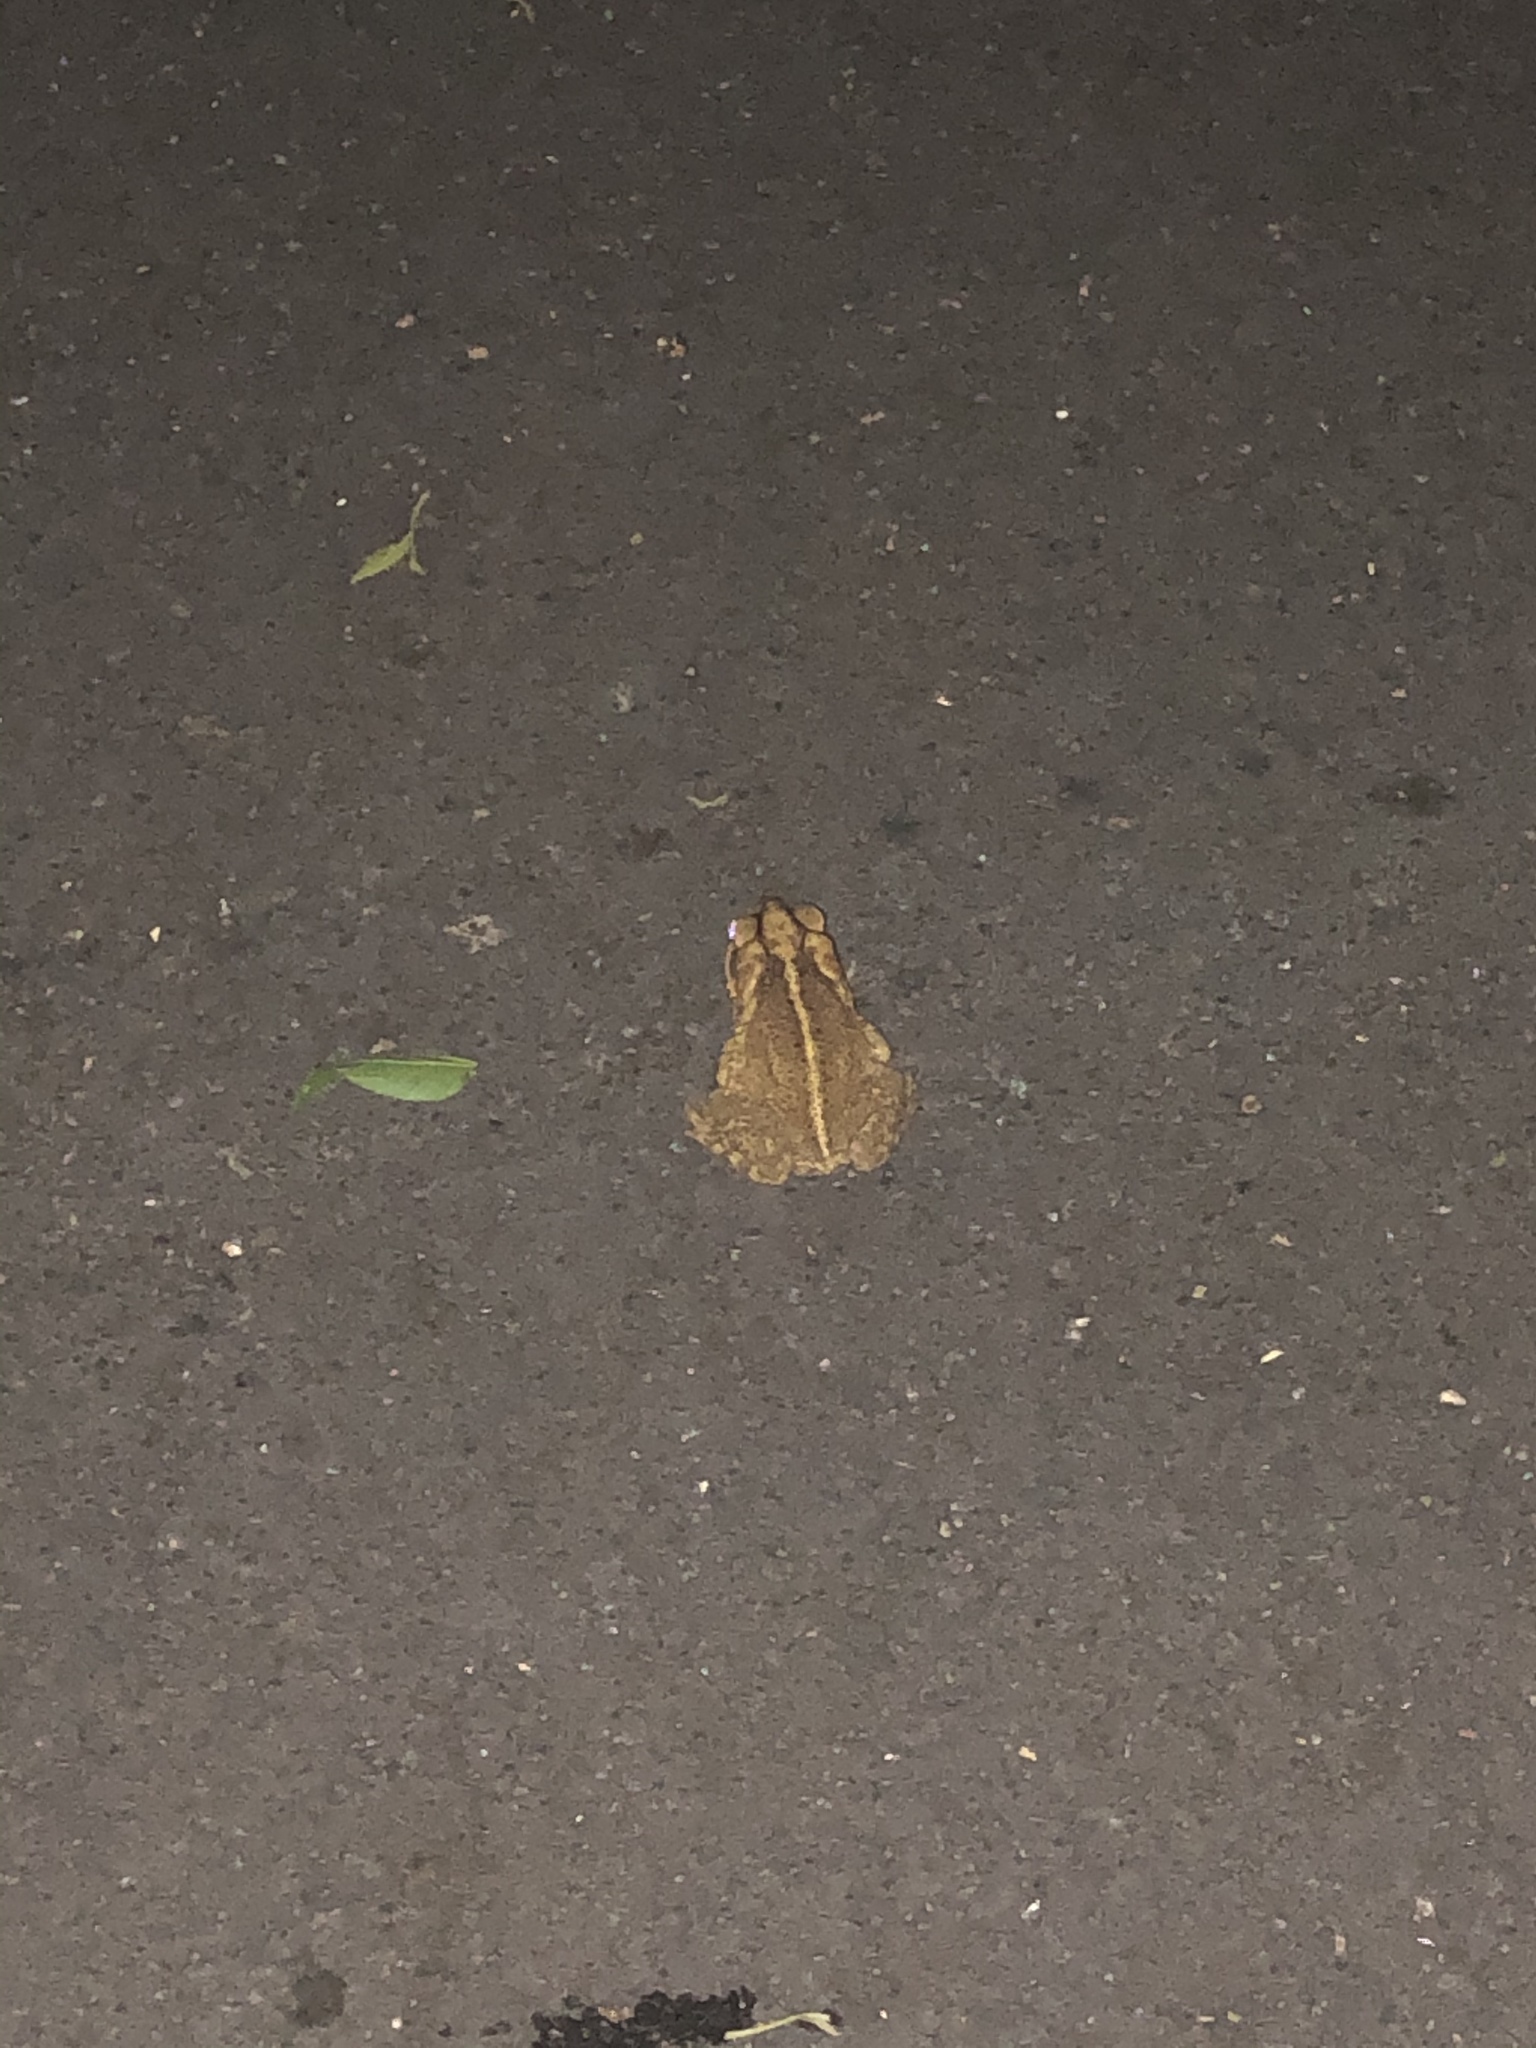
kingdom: Animalia
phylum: Chordata
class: Amphibia
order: Anura
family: Bufonidae
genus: Incilius
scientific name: Incilius nebulifer
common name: Gulf coast toad
